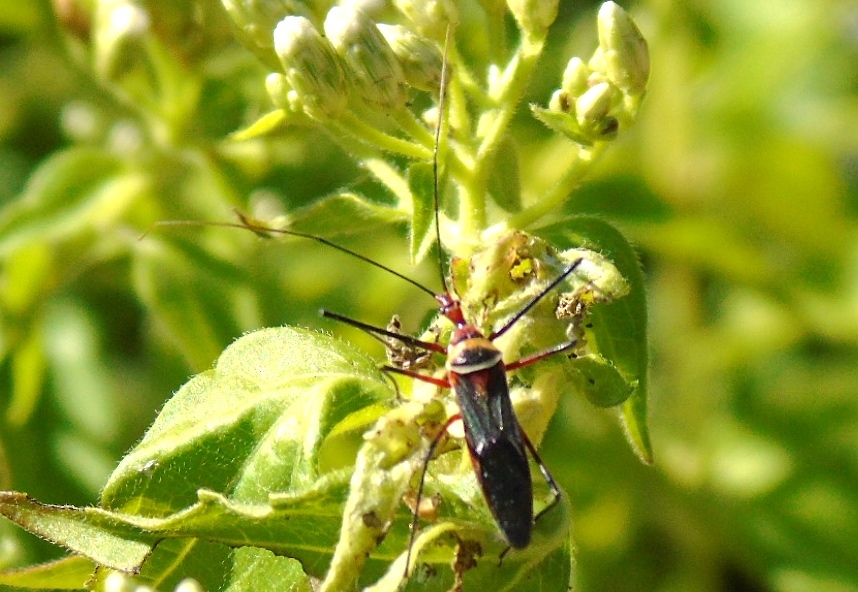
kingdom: Animalia
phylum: Arthropoda
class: Insecta
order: Hemiptera
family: Reduviidae
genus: Zelus
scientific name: Zelus grassans
